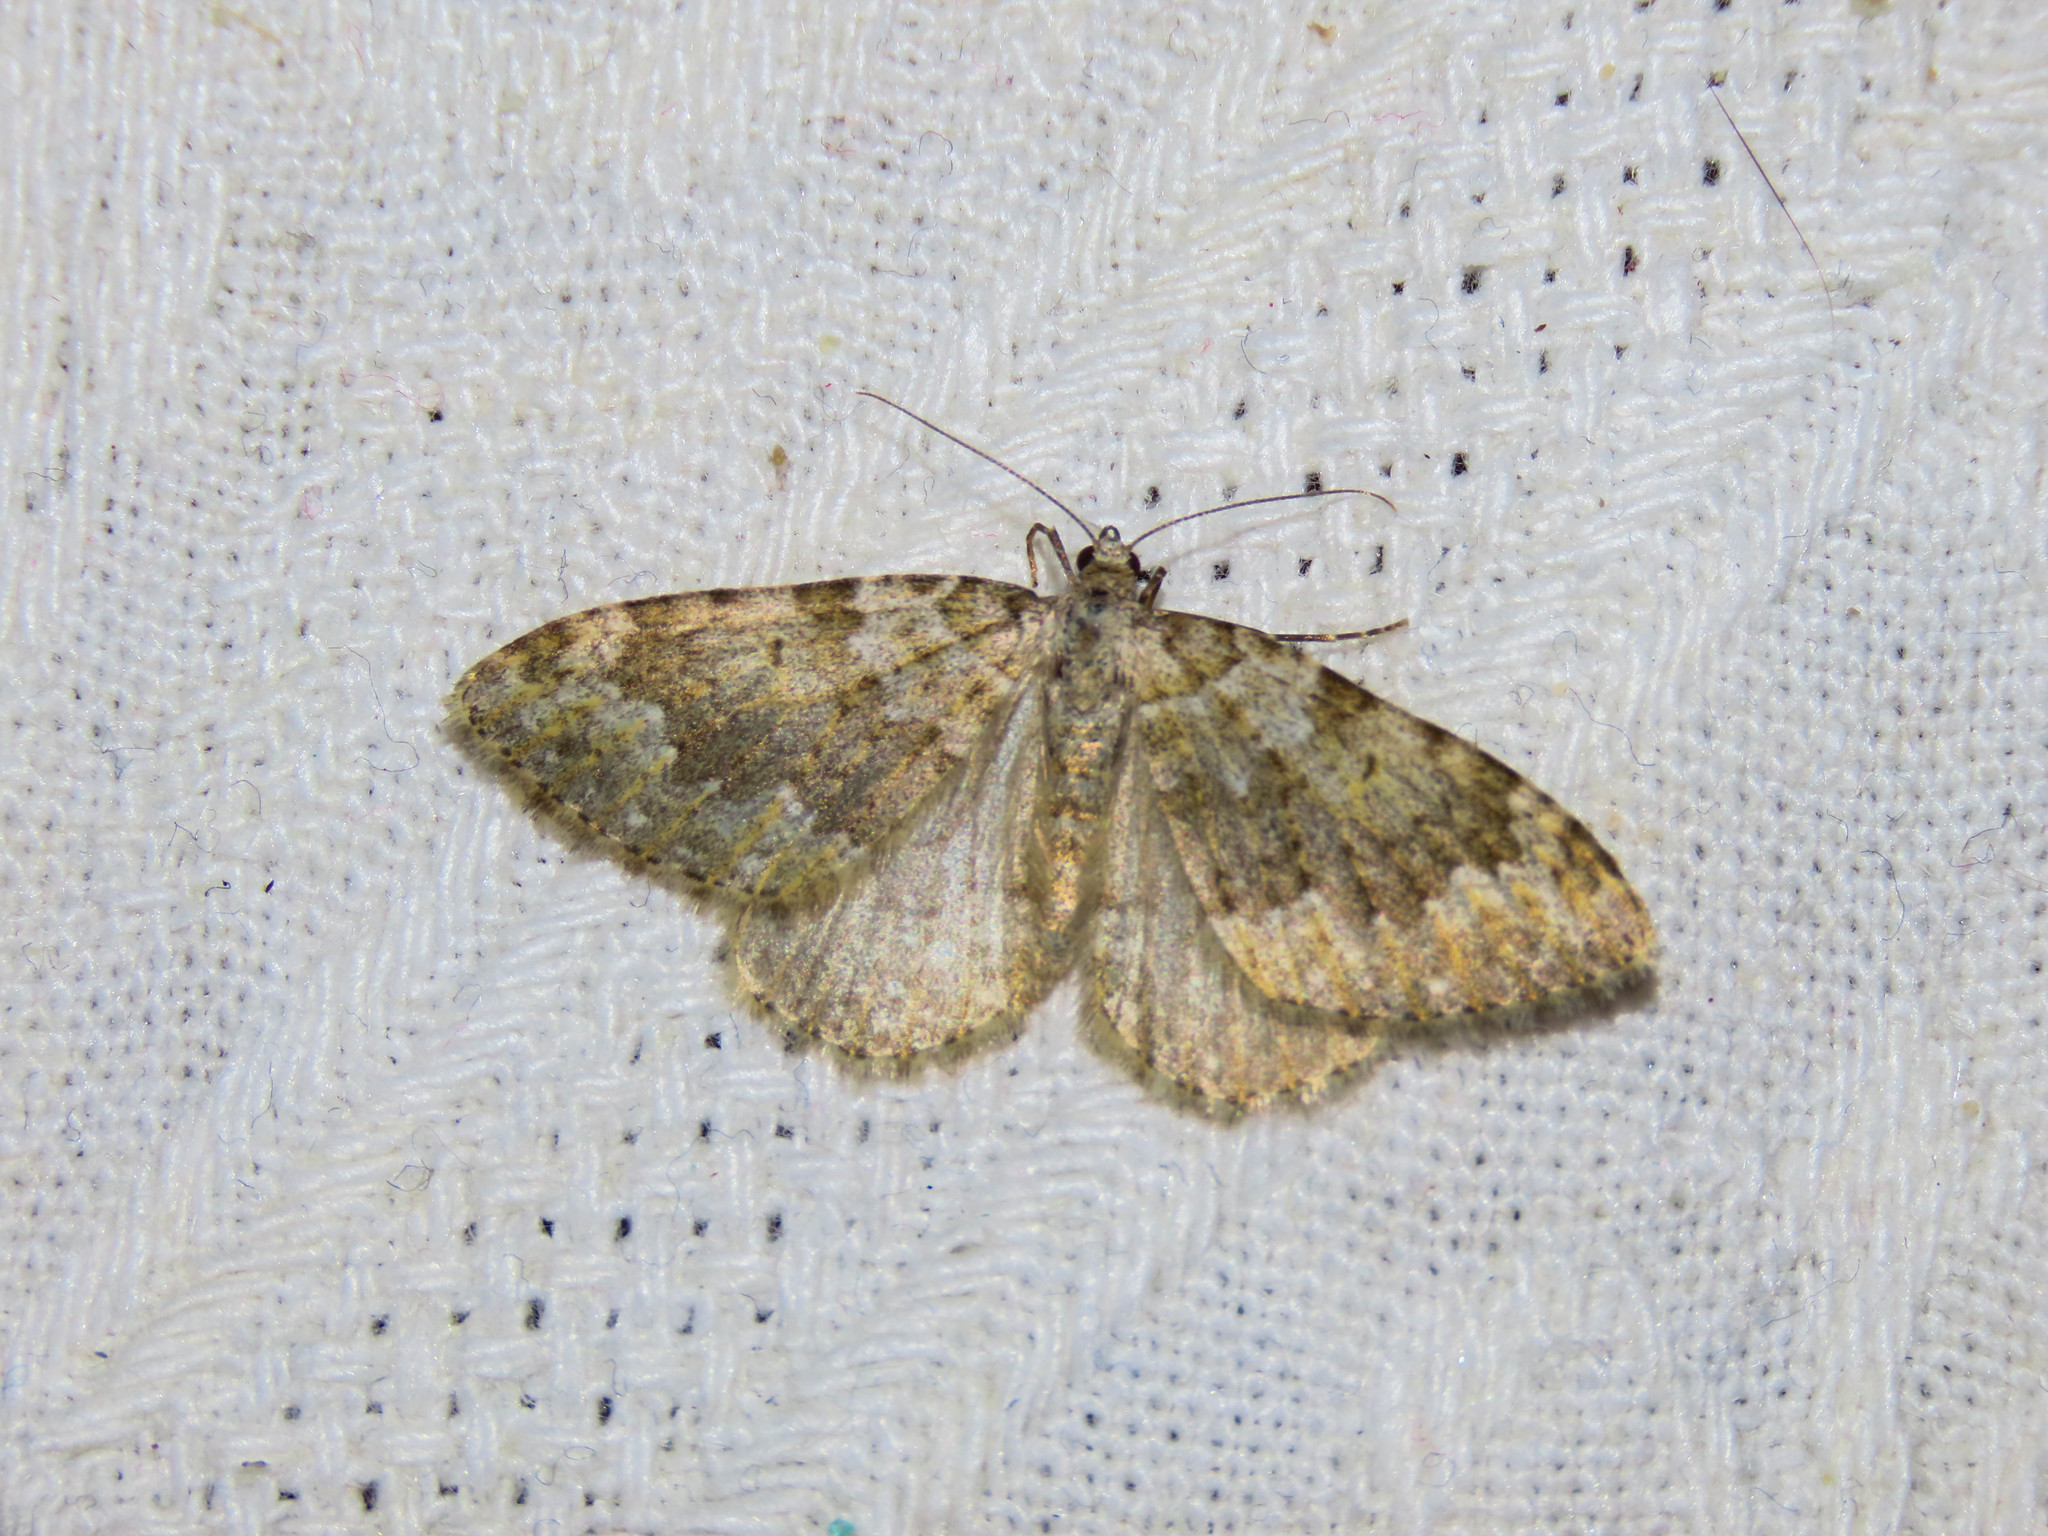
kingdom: Animalia
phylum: Arthropoda
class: Insecta
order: Lepidoptera
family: Geometridae
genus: Nebula
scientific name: Nebula tophaceata
